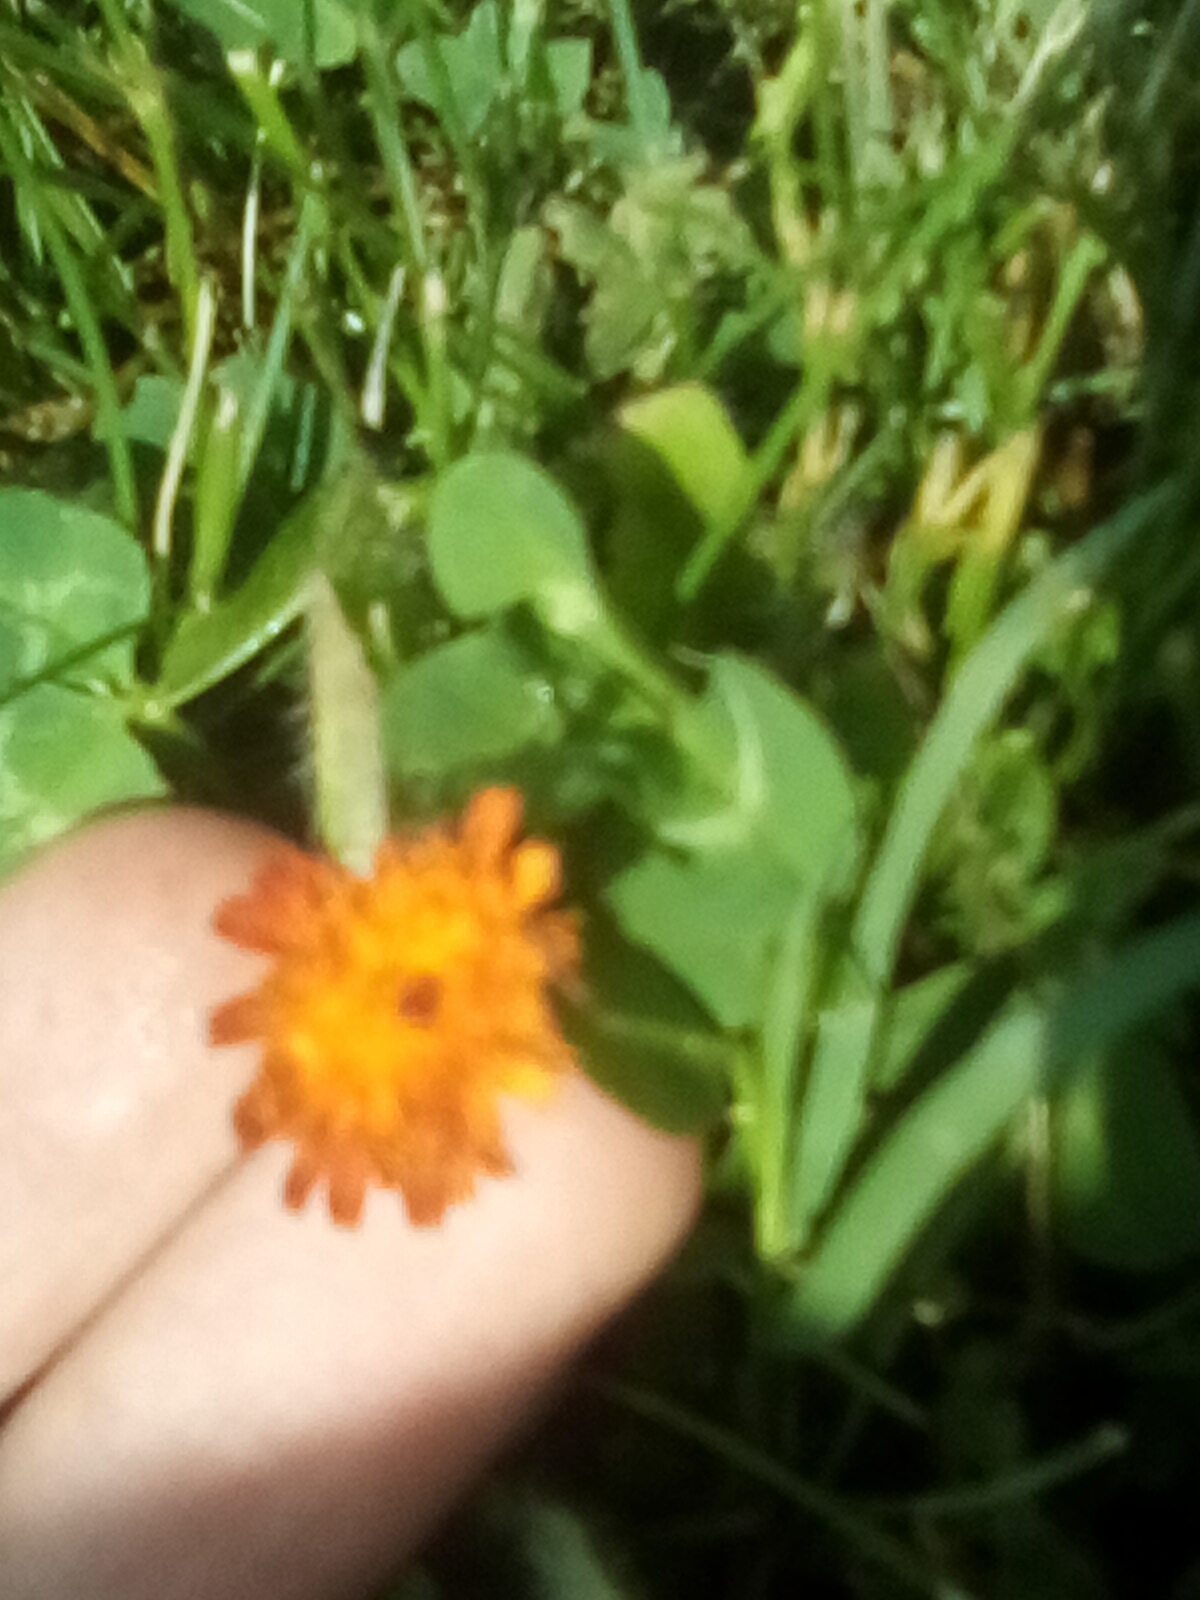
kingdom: Plantae
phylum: Tracheophyta
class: Magnoliopsida
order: Asterales
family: Asteraceae
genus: Pilosella
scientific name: Pilosella aurantiaca
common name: Fox-and-cubs
